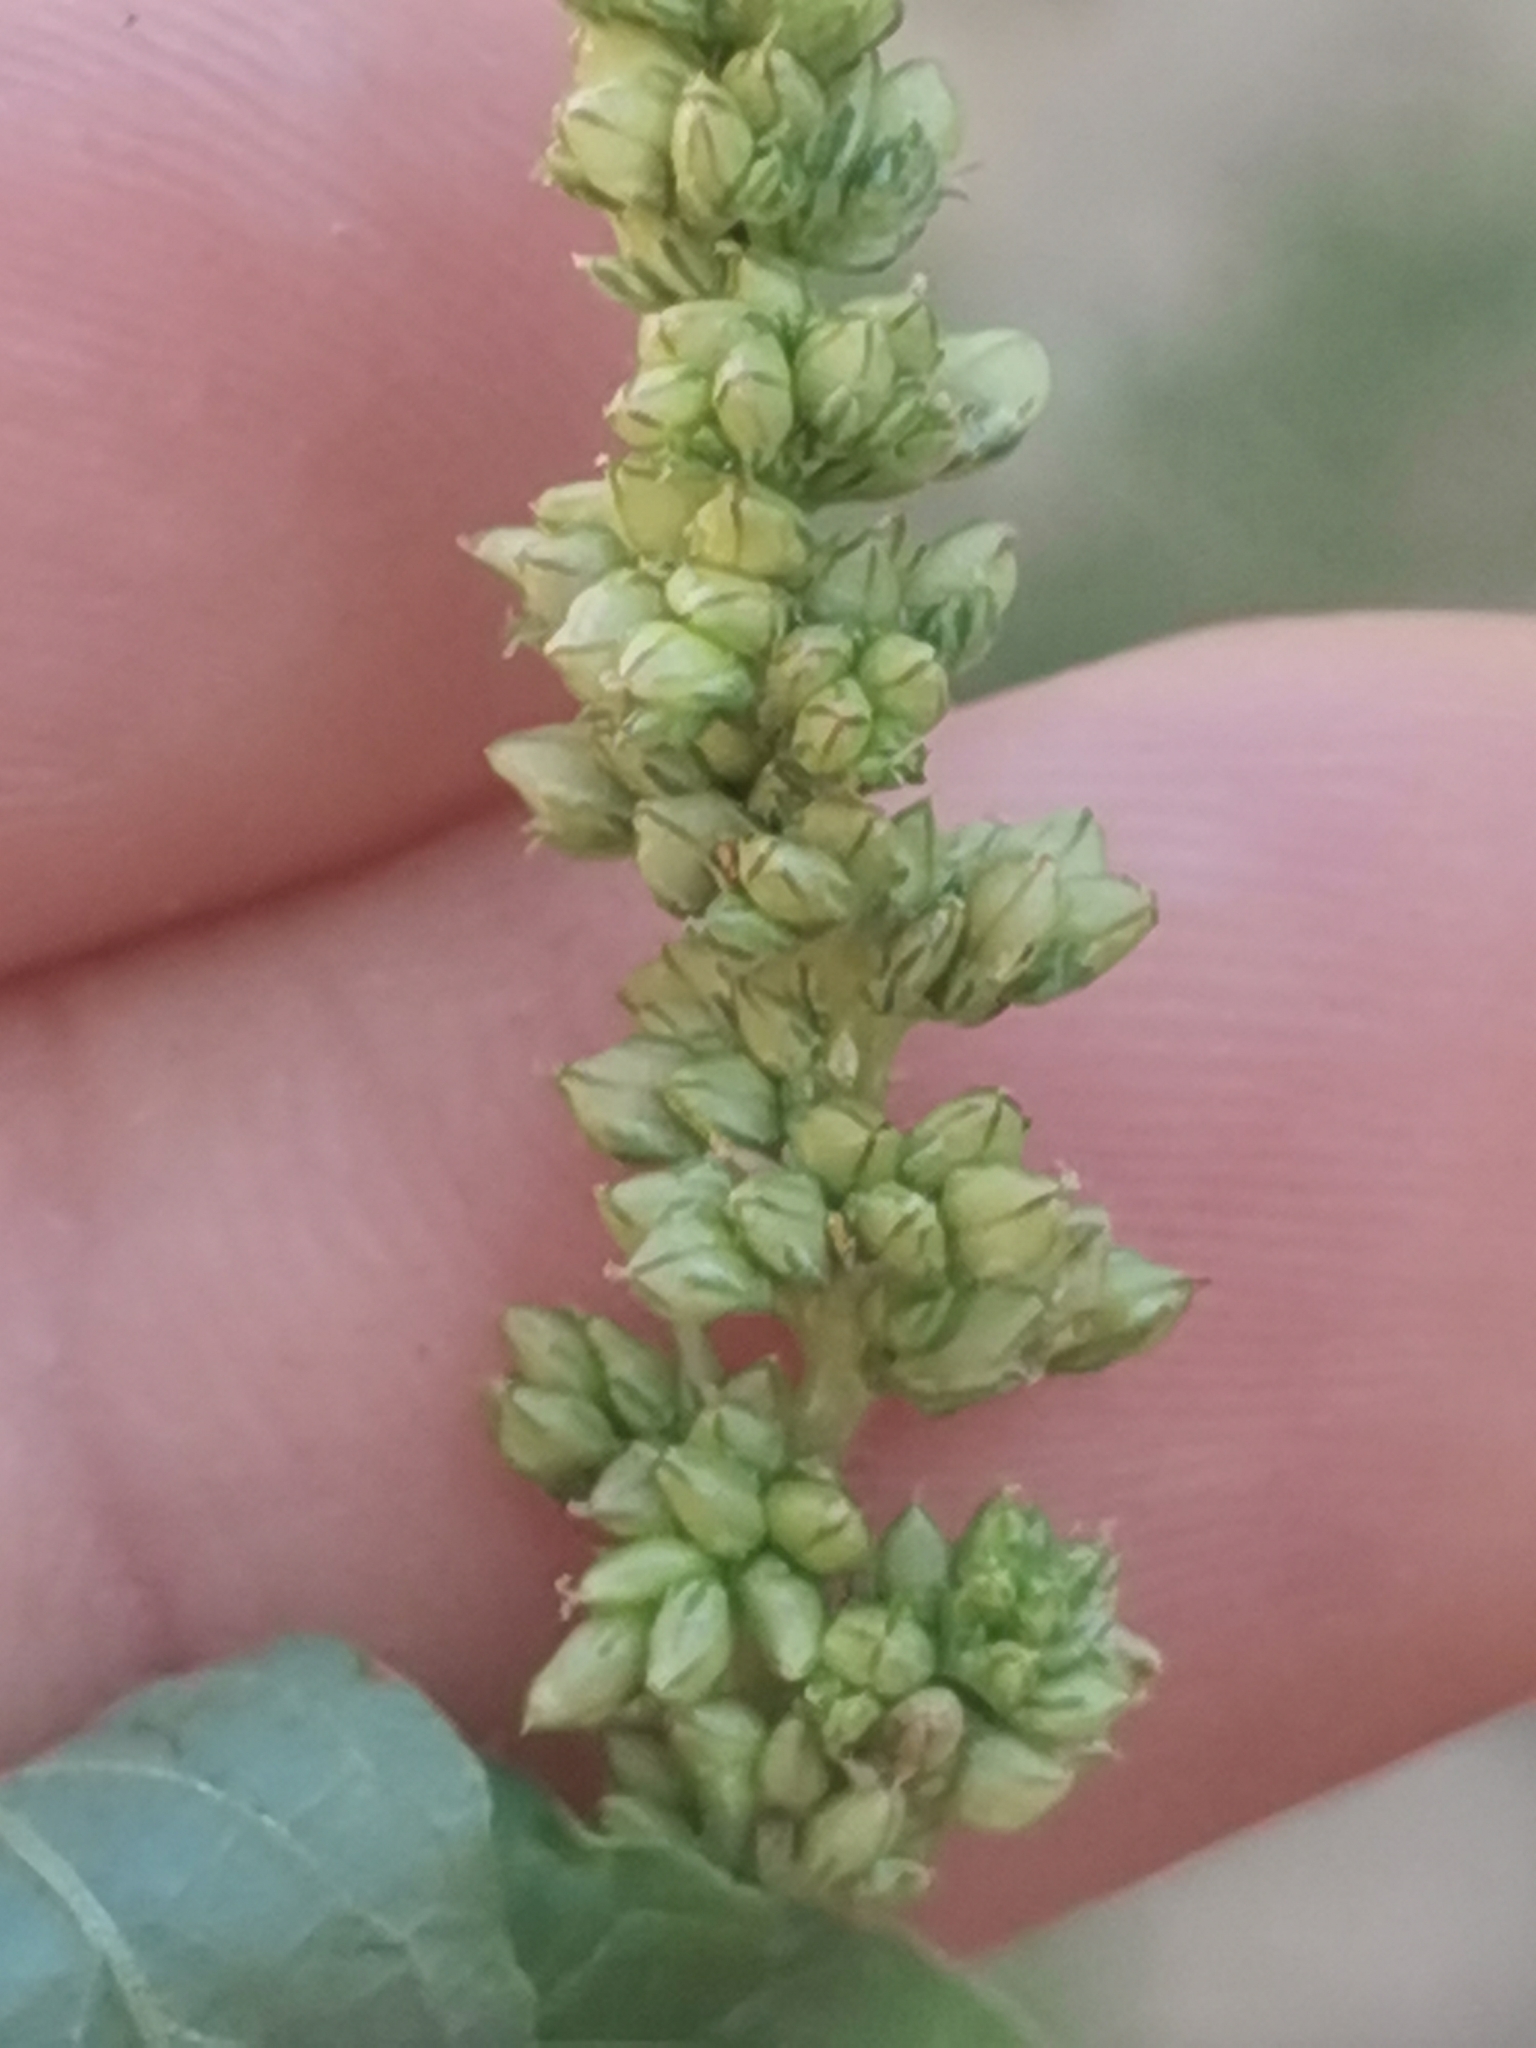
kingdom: Plantae
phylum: Tracheophyta
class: Magnoliopsida
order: Caryophyllales
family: Amaranthaceae
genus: Amaranthus
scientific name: Amaranthus deflexus
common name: Perennial pigweed
